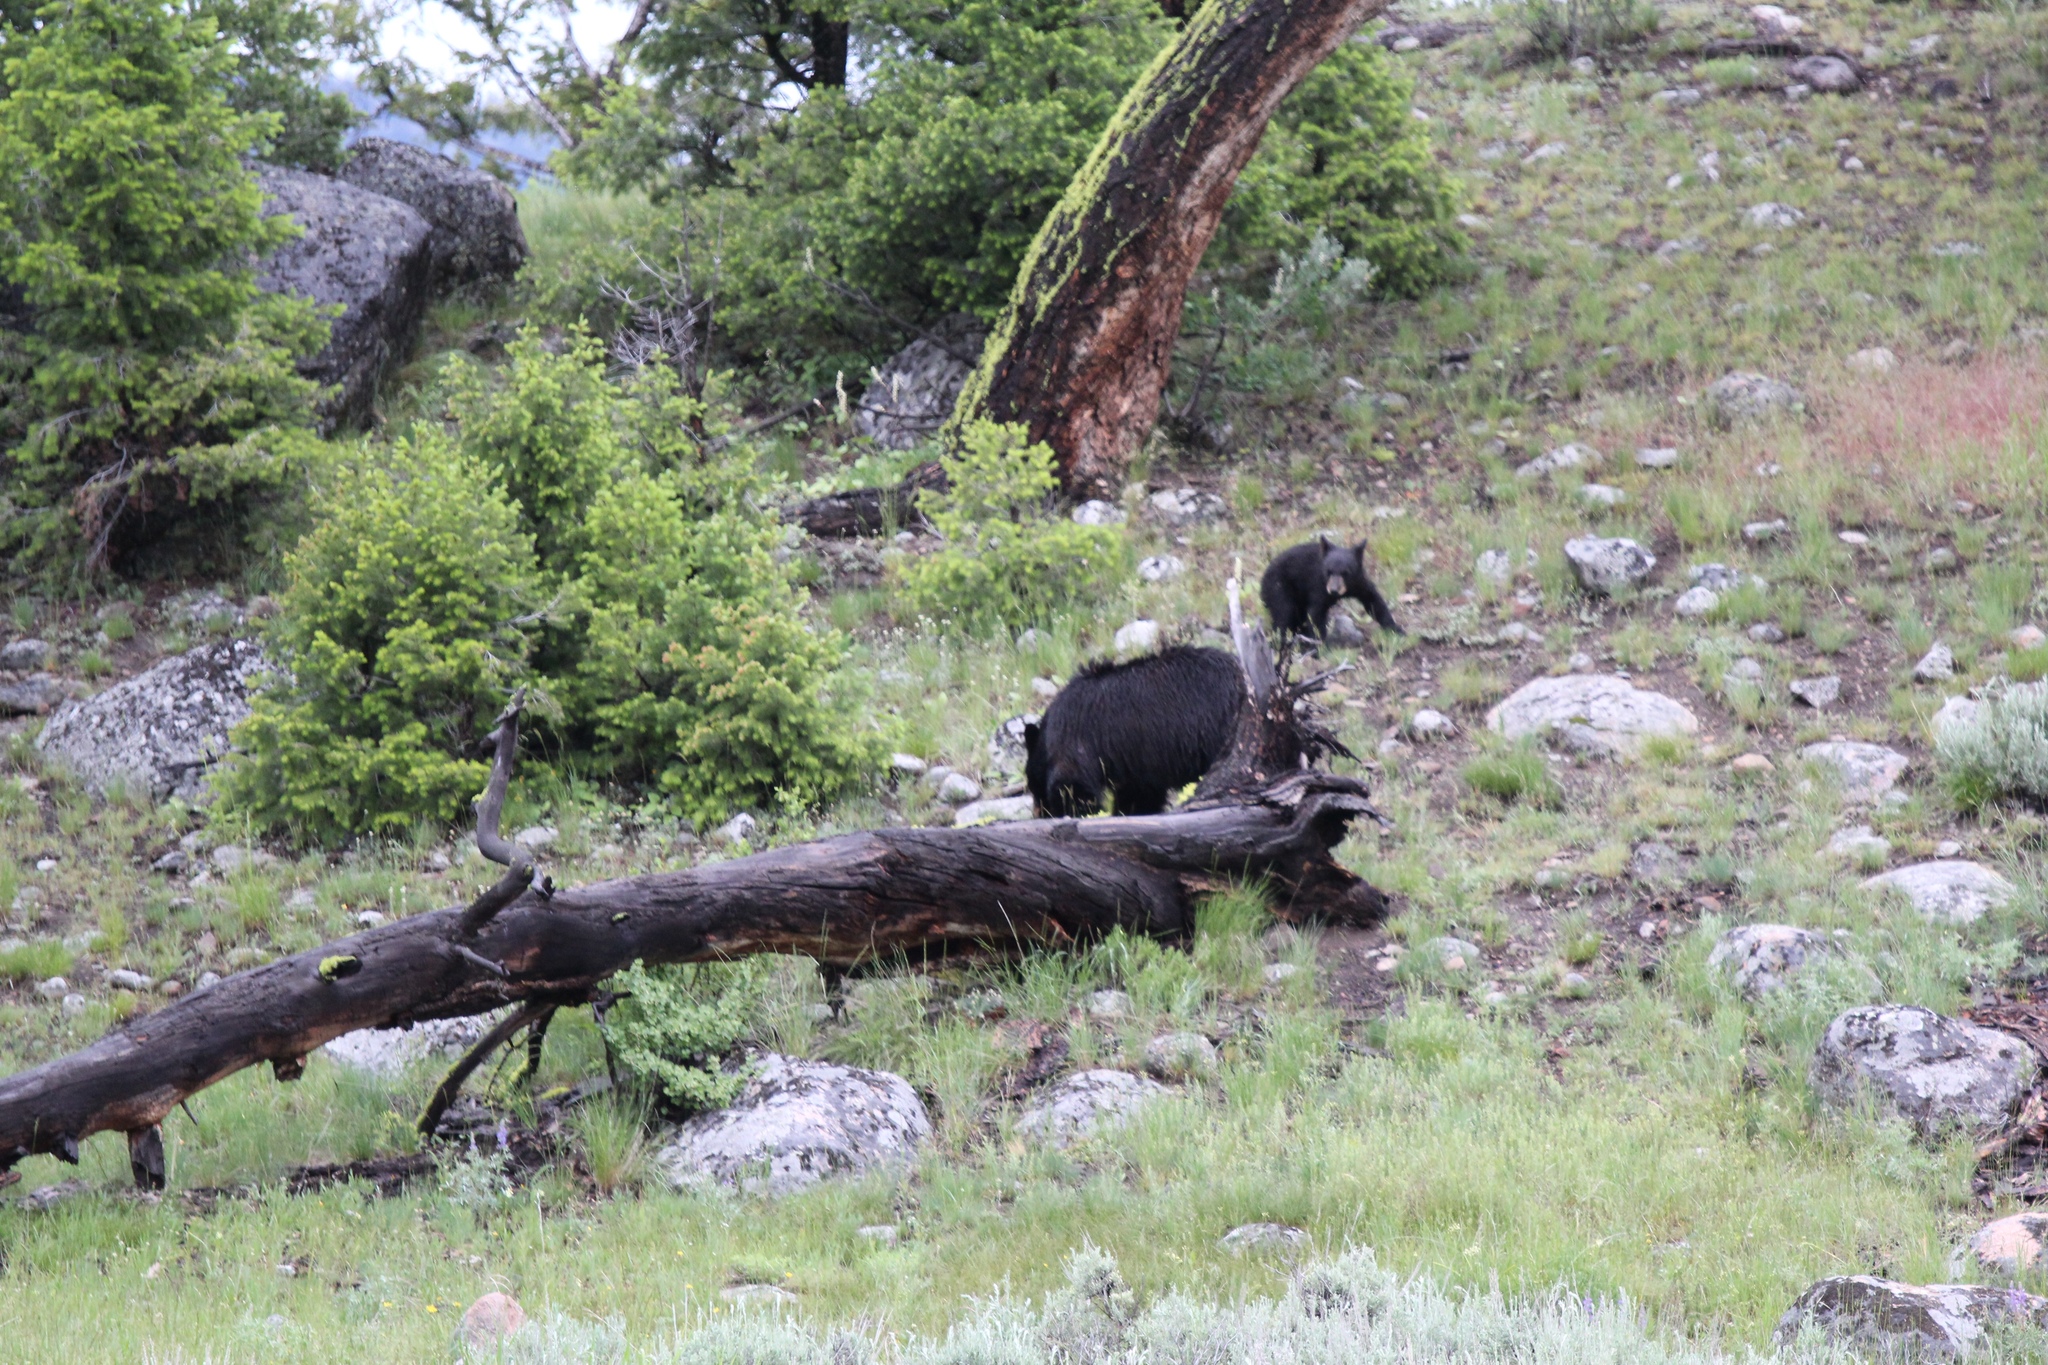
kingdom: Animalia
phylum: Chordata
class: Mammalia
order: Carnivora
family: Ursidae
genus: Ursus
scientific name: Ursus americanus
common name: American black bear
